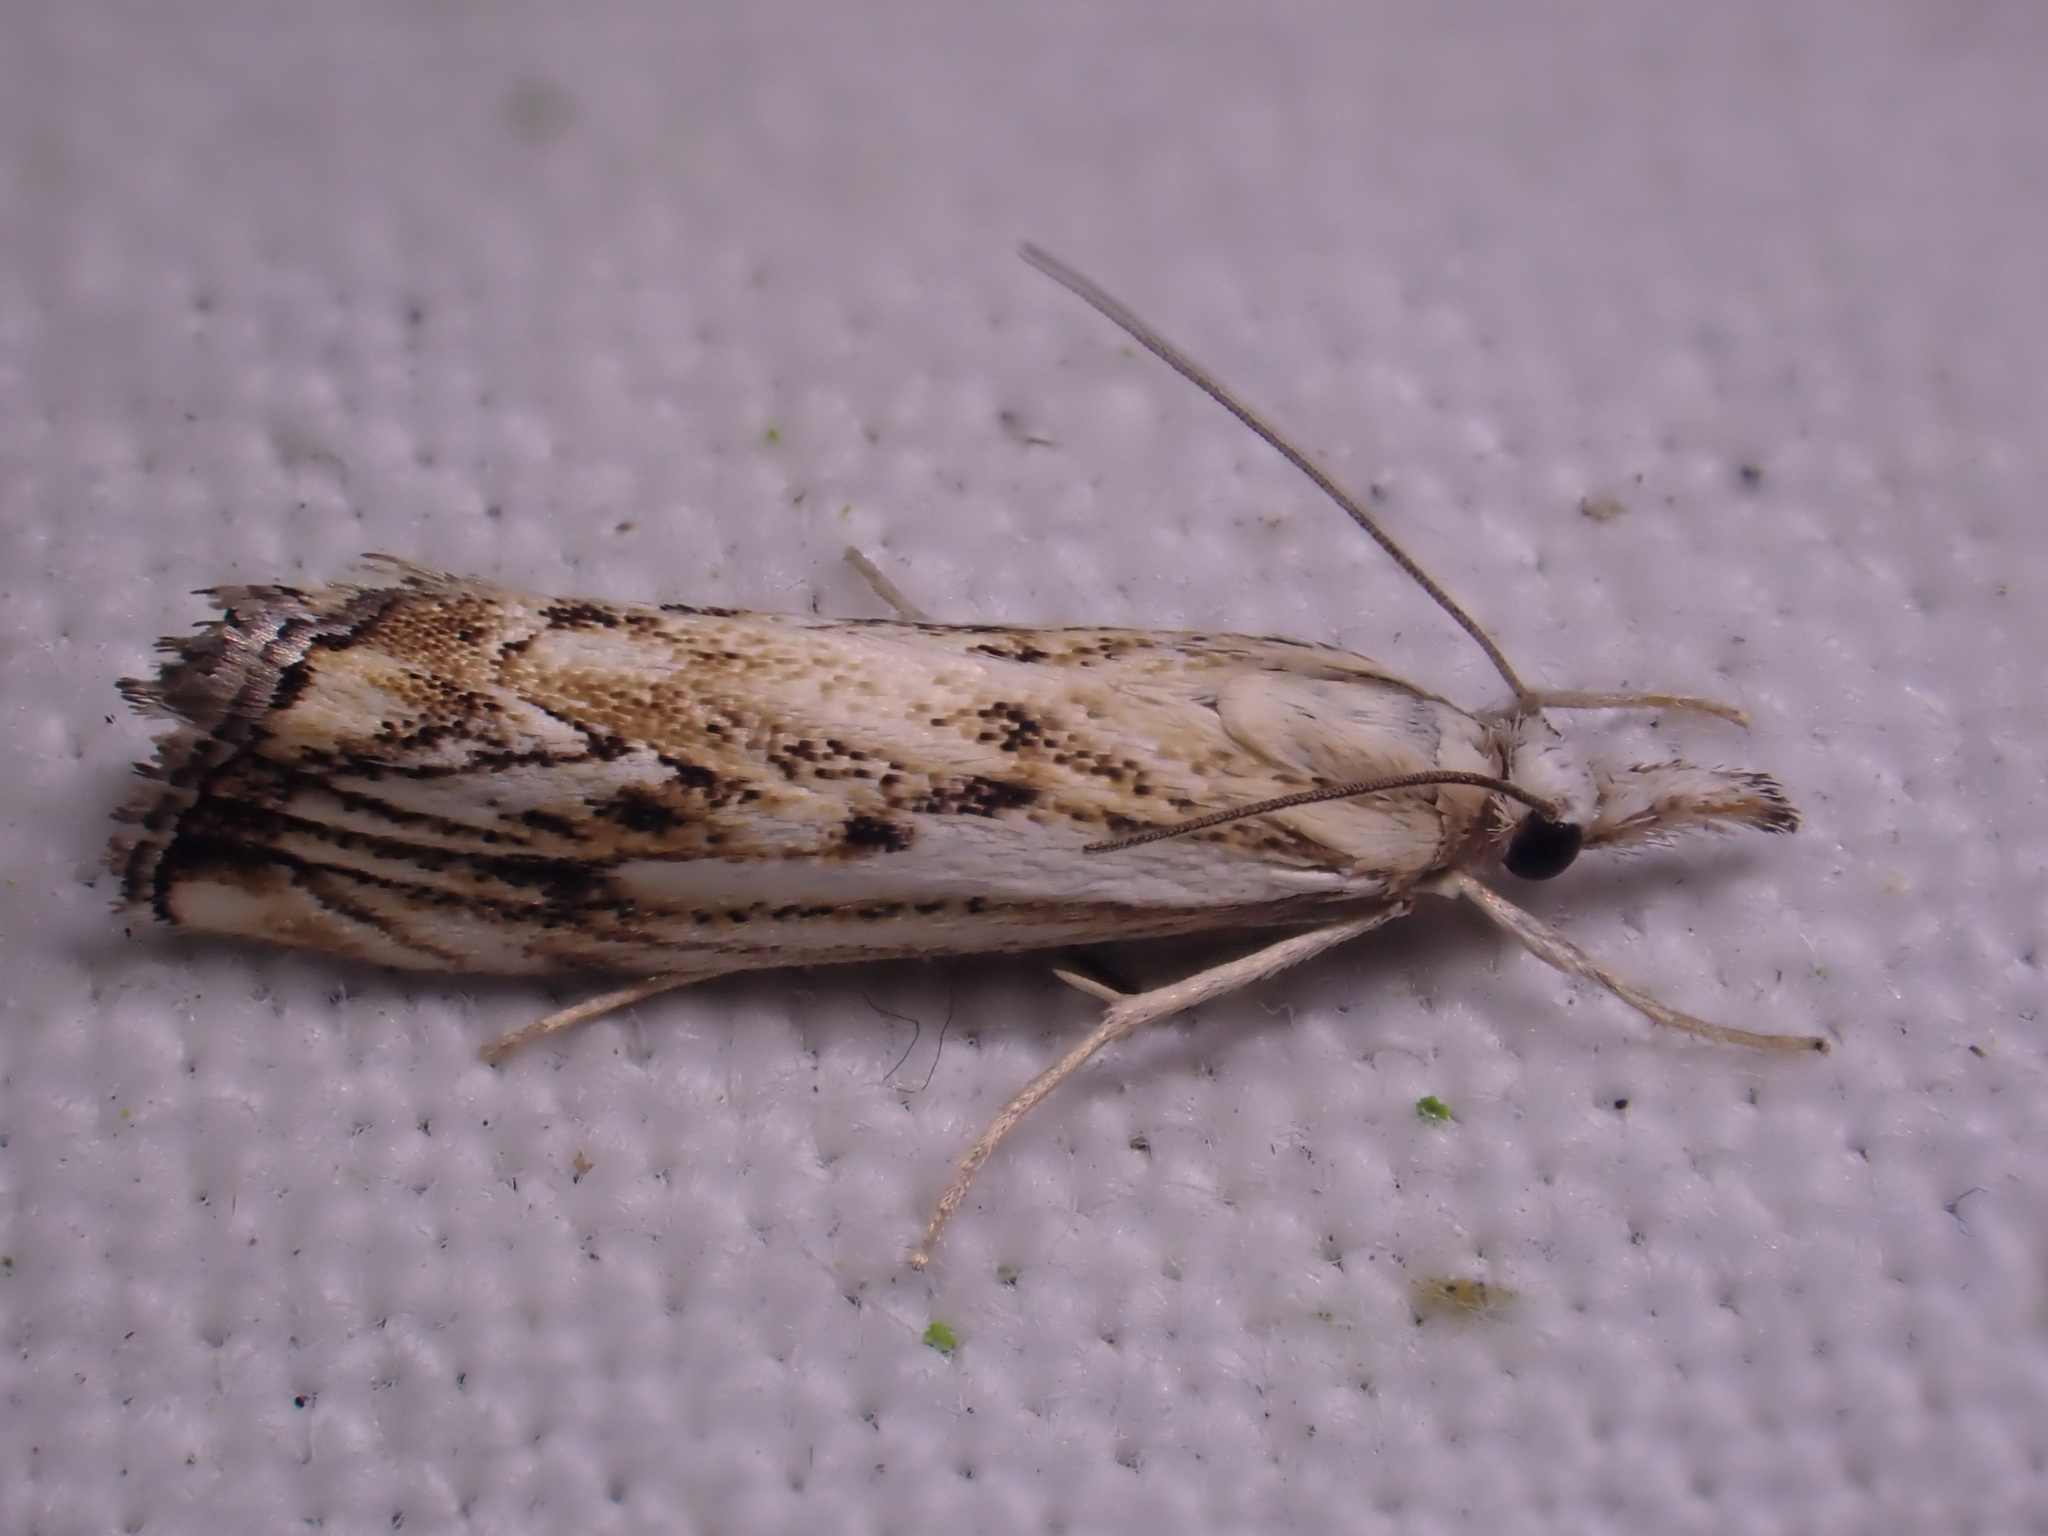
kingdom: Animalia
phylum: Arthropoda
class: Insecta
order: Lepidoptera
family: Crambidae
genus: Catoptria
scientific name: Catoptria falsella
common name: Chequered grass-veneer
